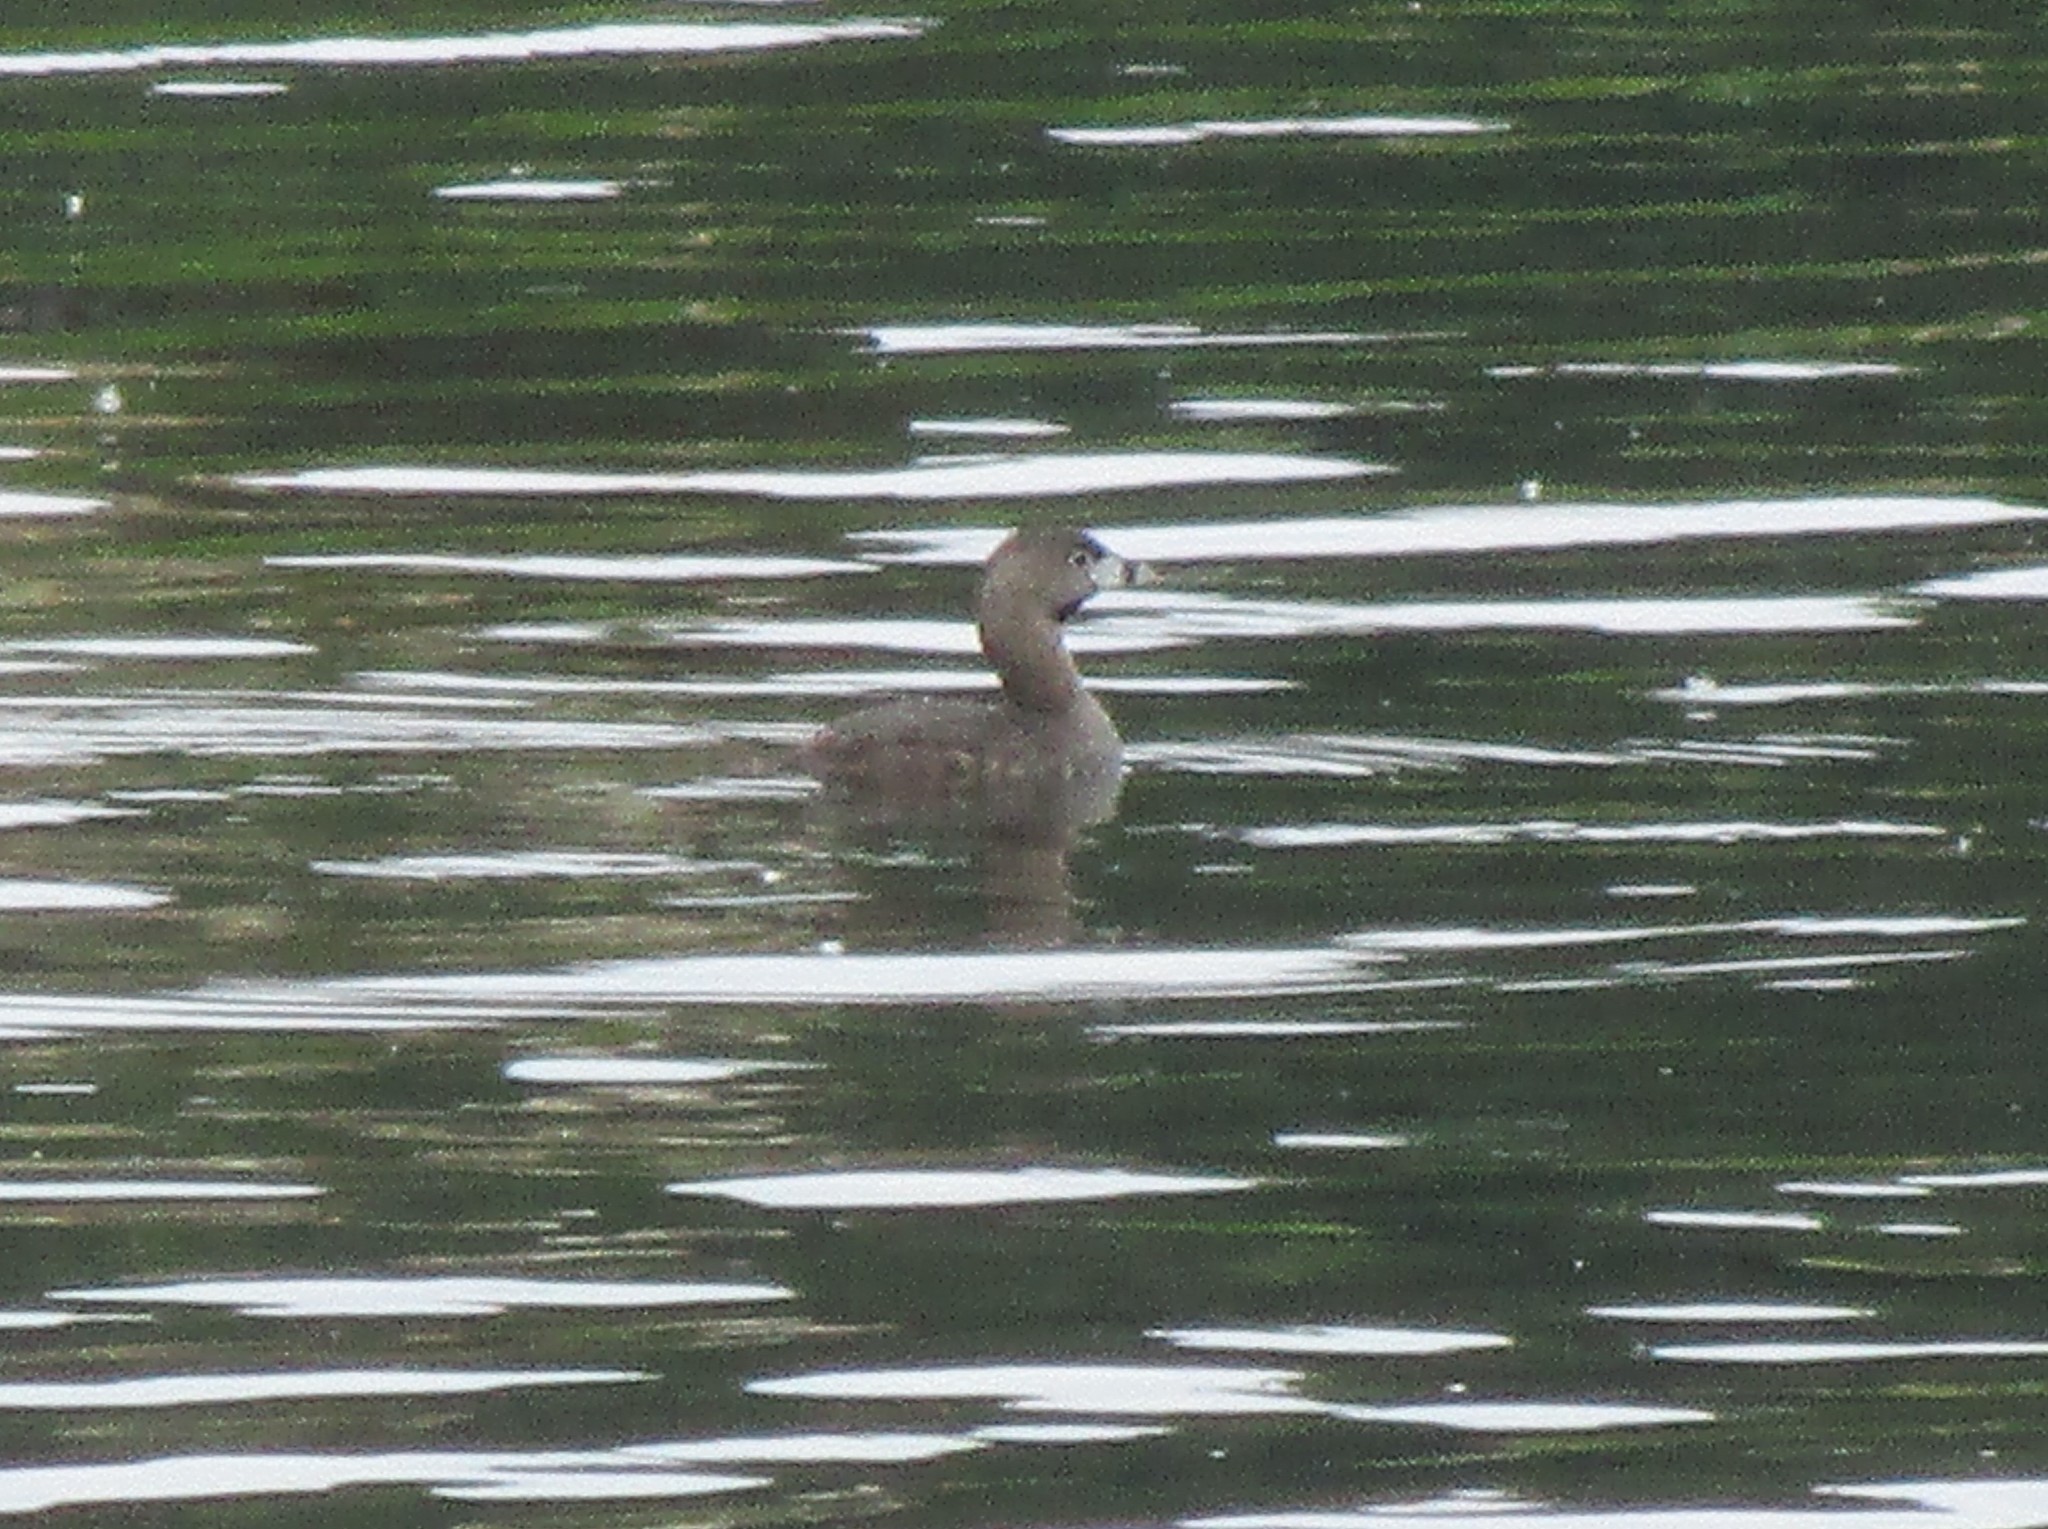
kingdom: Animalia
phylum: Chordata
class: Aves
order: Podicipediformes
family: Podicipedidae
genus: Podilymbus
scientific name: Podilymbus podiceps
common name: Pied-billed grebe
